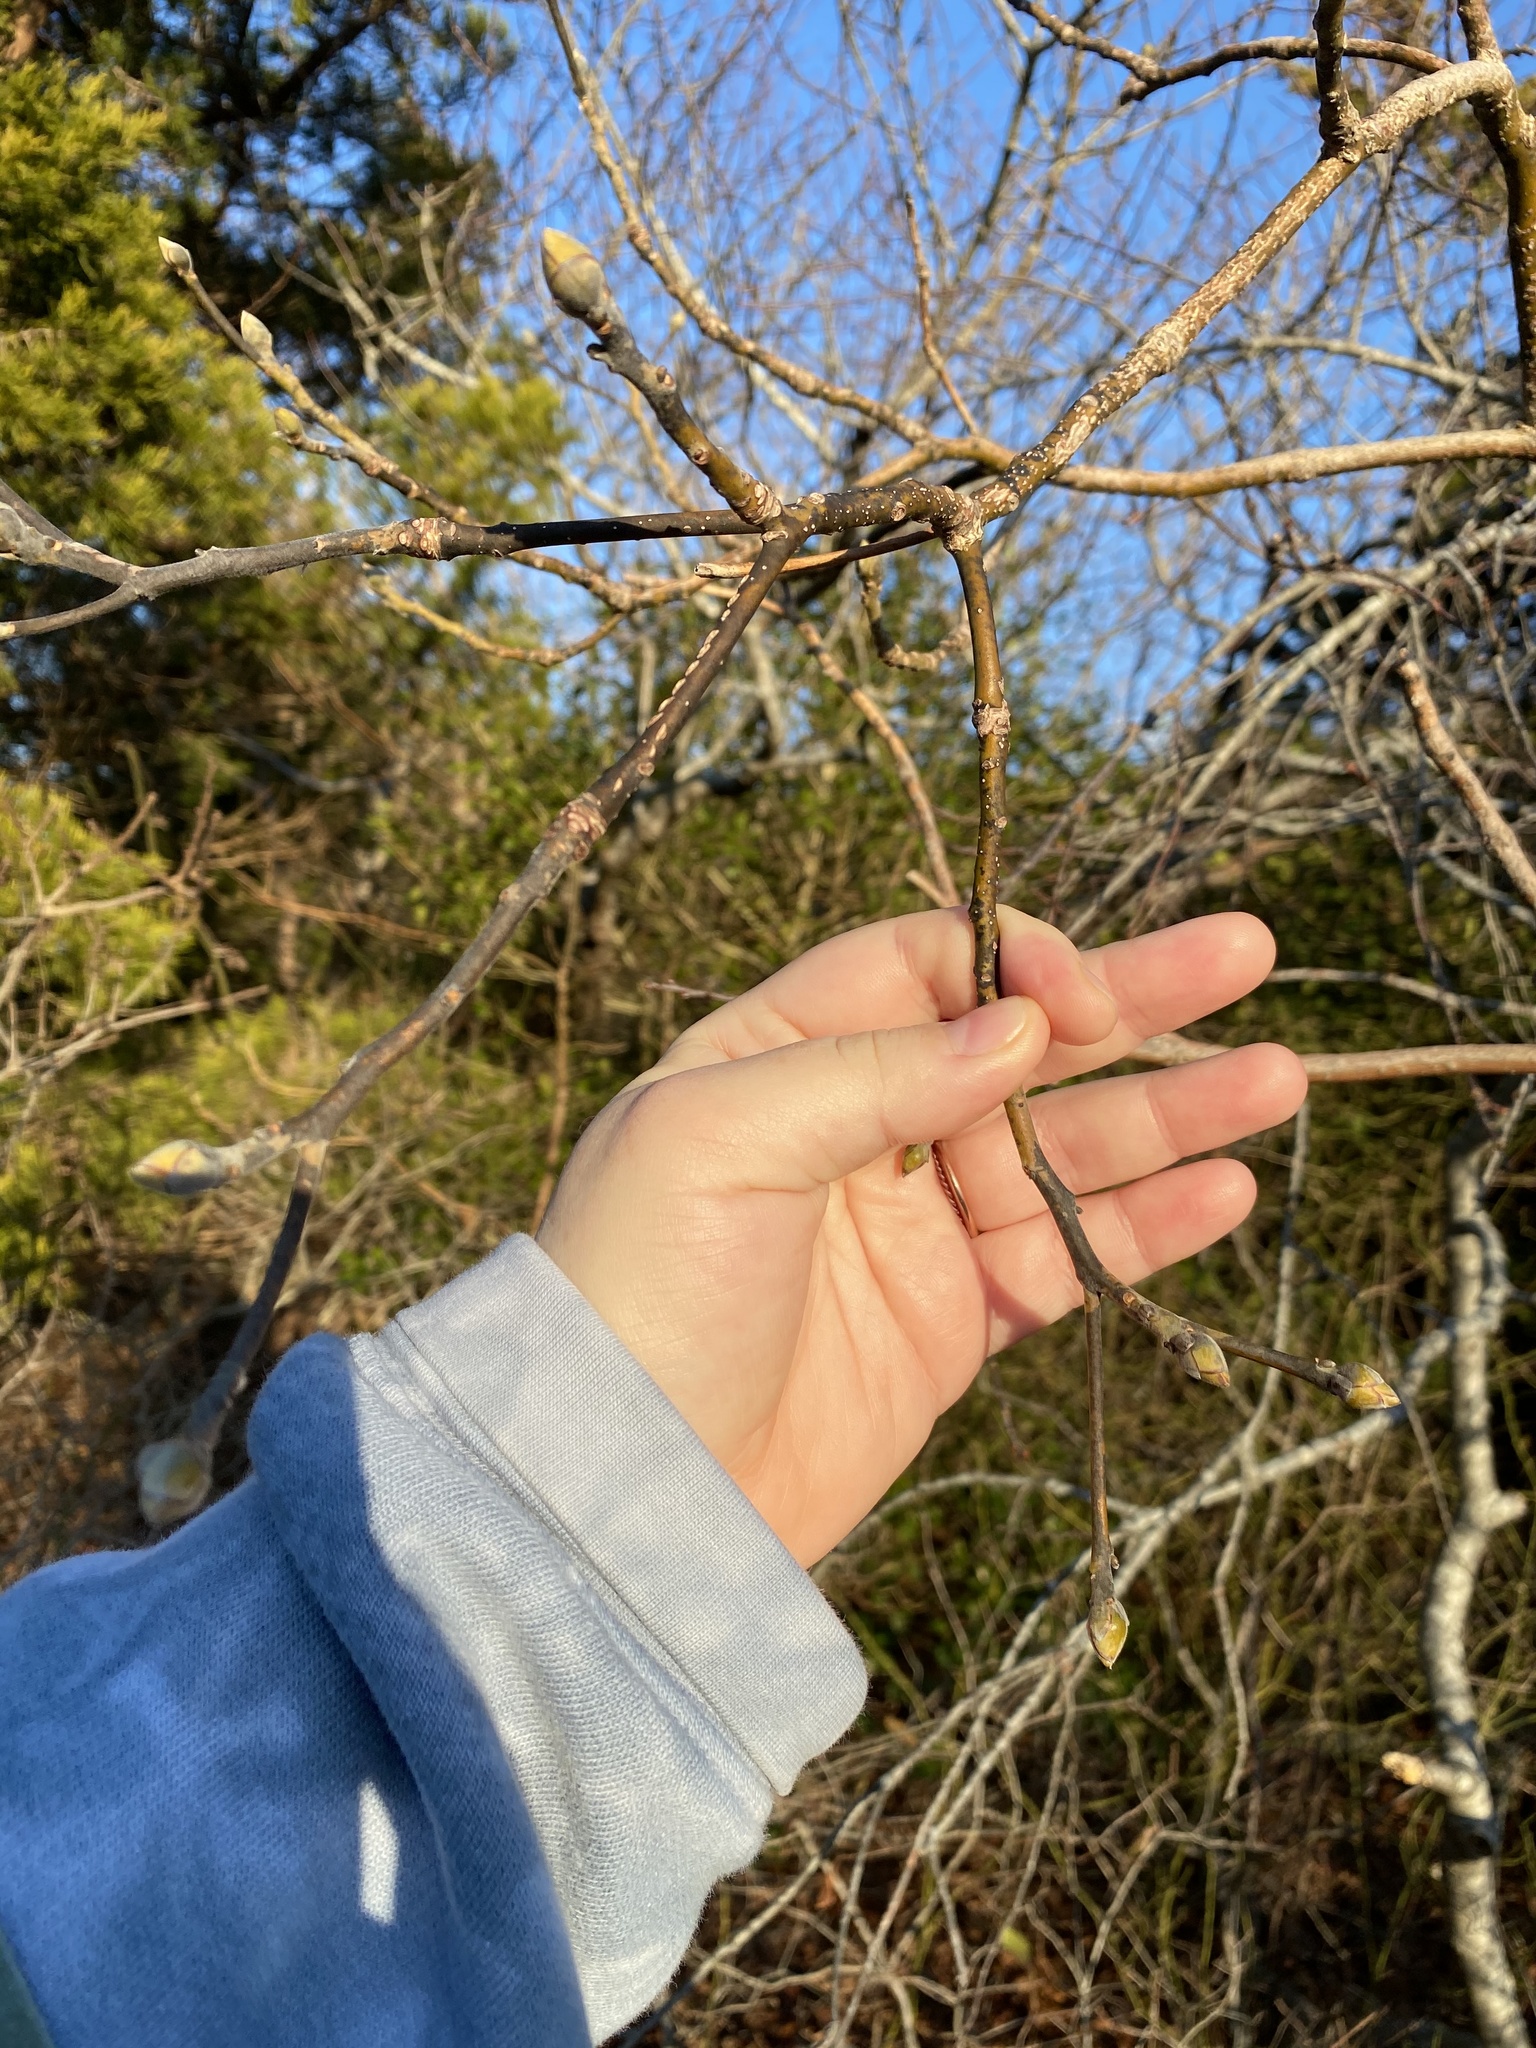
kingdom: Plantae
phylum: Tracheophyta
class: Magnoliopsida
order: Laurales
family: Lauraceae
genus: Sassafras
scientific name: Sassafras albidum
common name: Sassafras
